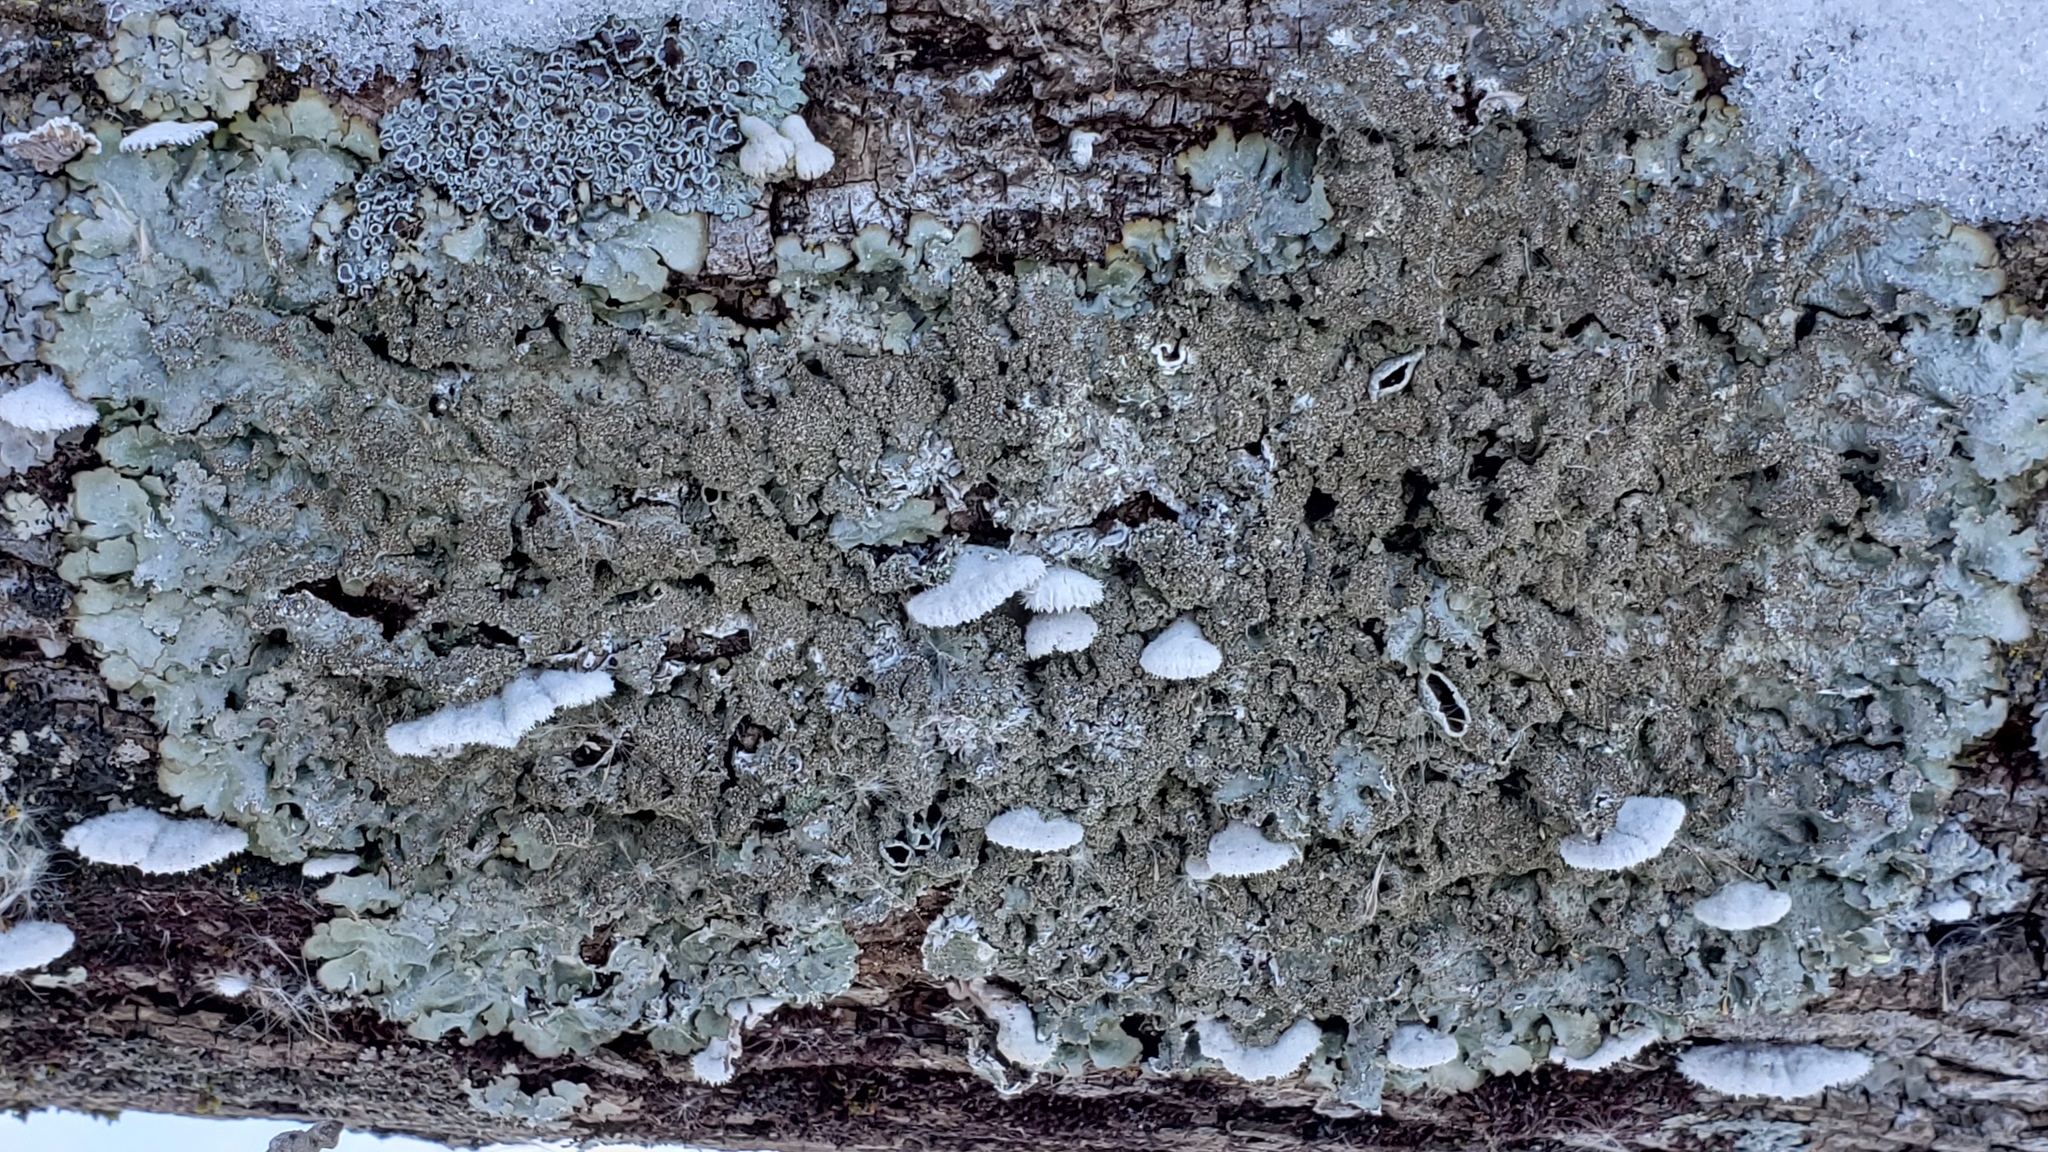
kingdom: Fungi
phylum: Ascomycota
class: Lecanoromycetes
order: Lecanorales
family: Parmeliaceae
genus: Punctelia
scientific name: Punctelia rudecta
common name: Rough speckled shield lichen
